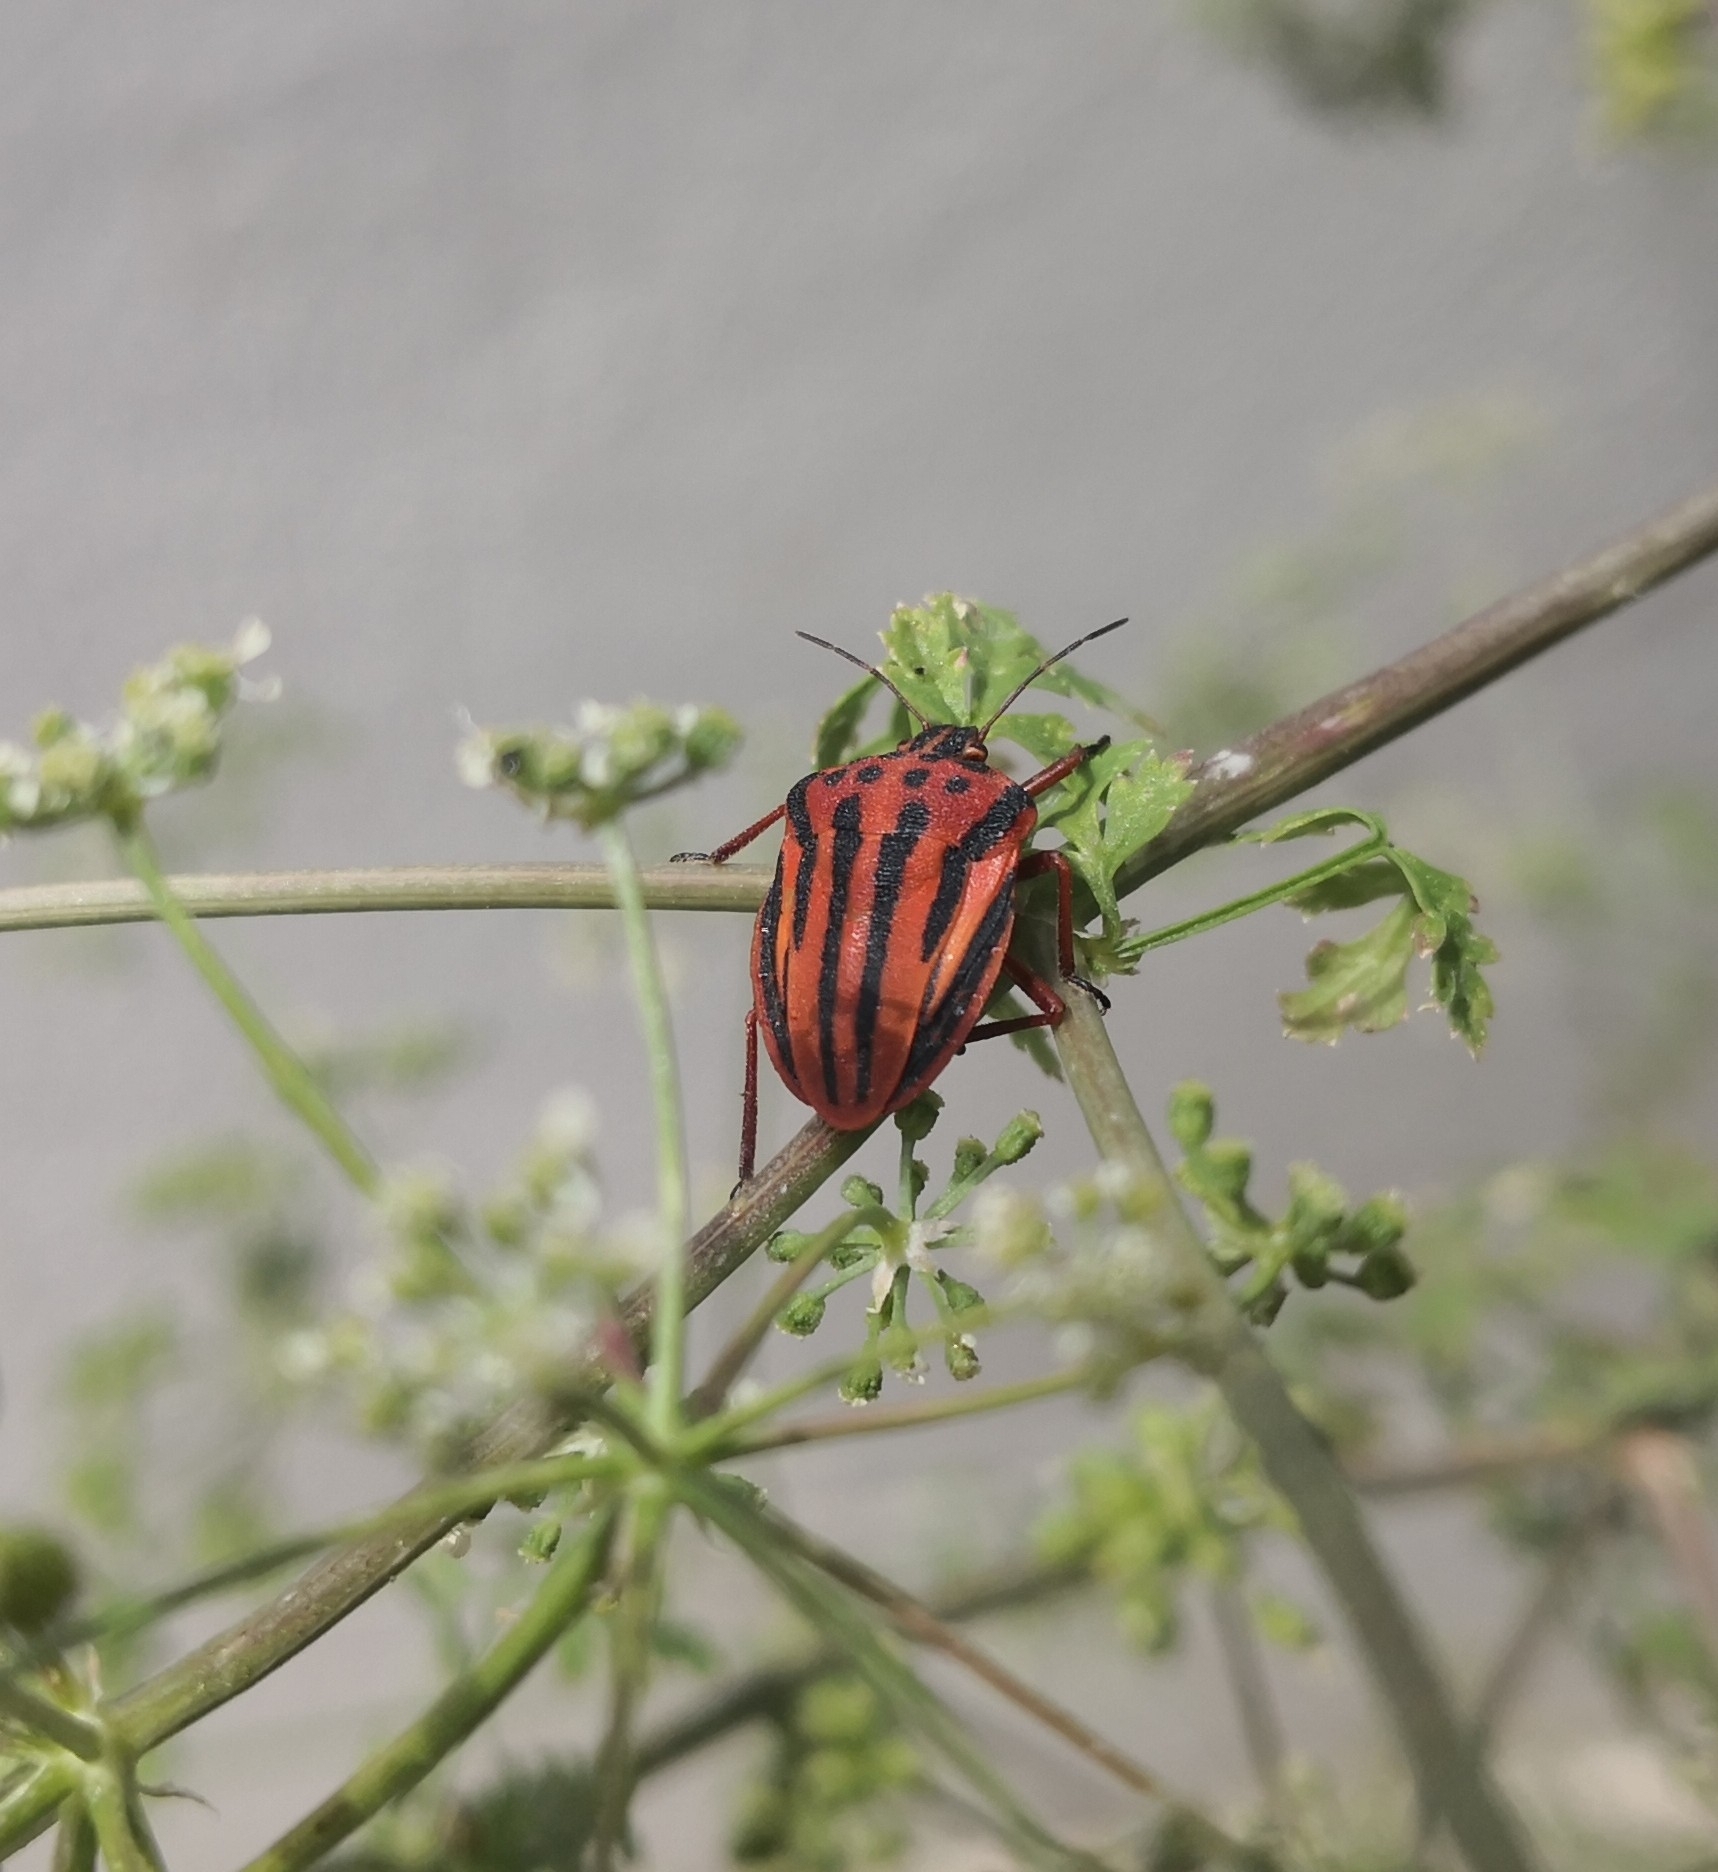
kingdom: Animalia
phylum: Arthropoda
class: Insecta
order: Hemiptera
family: Pentatomidae
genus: Graphosoma
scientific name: Graphosoma semipunctatum
